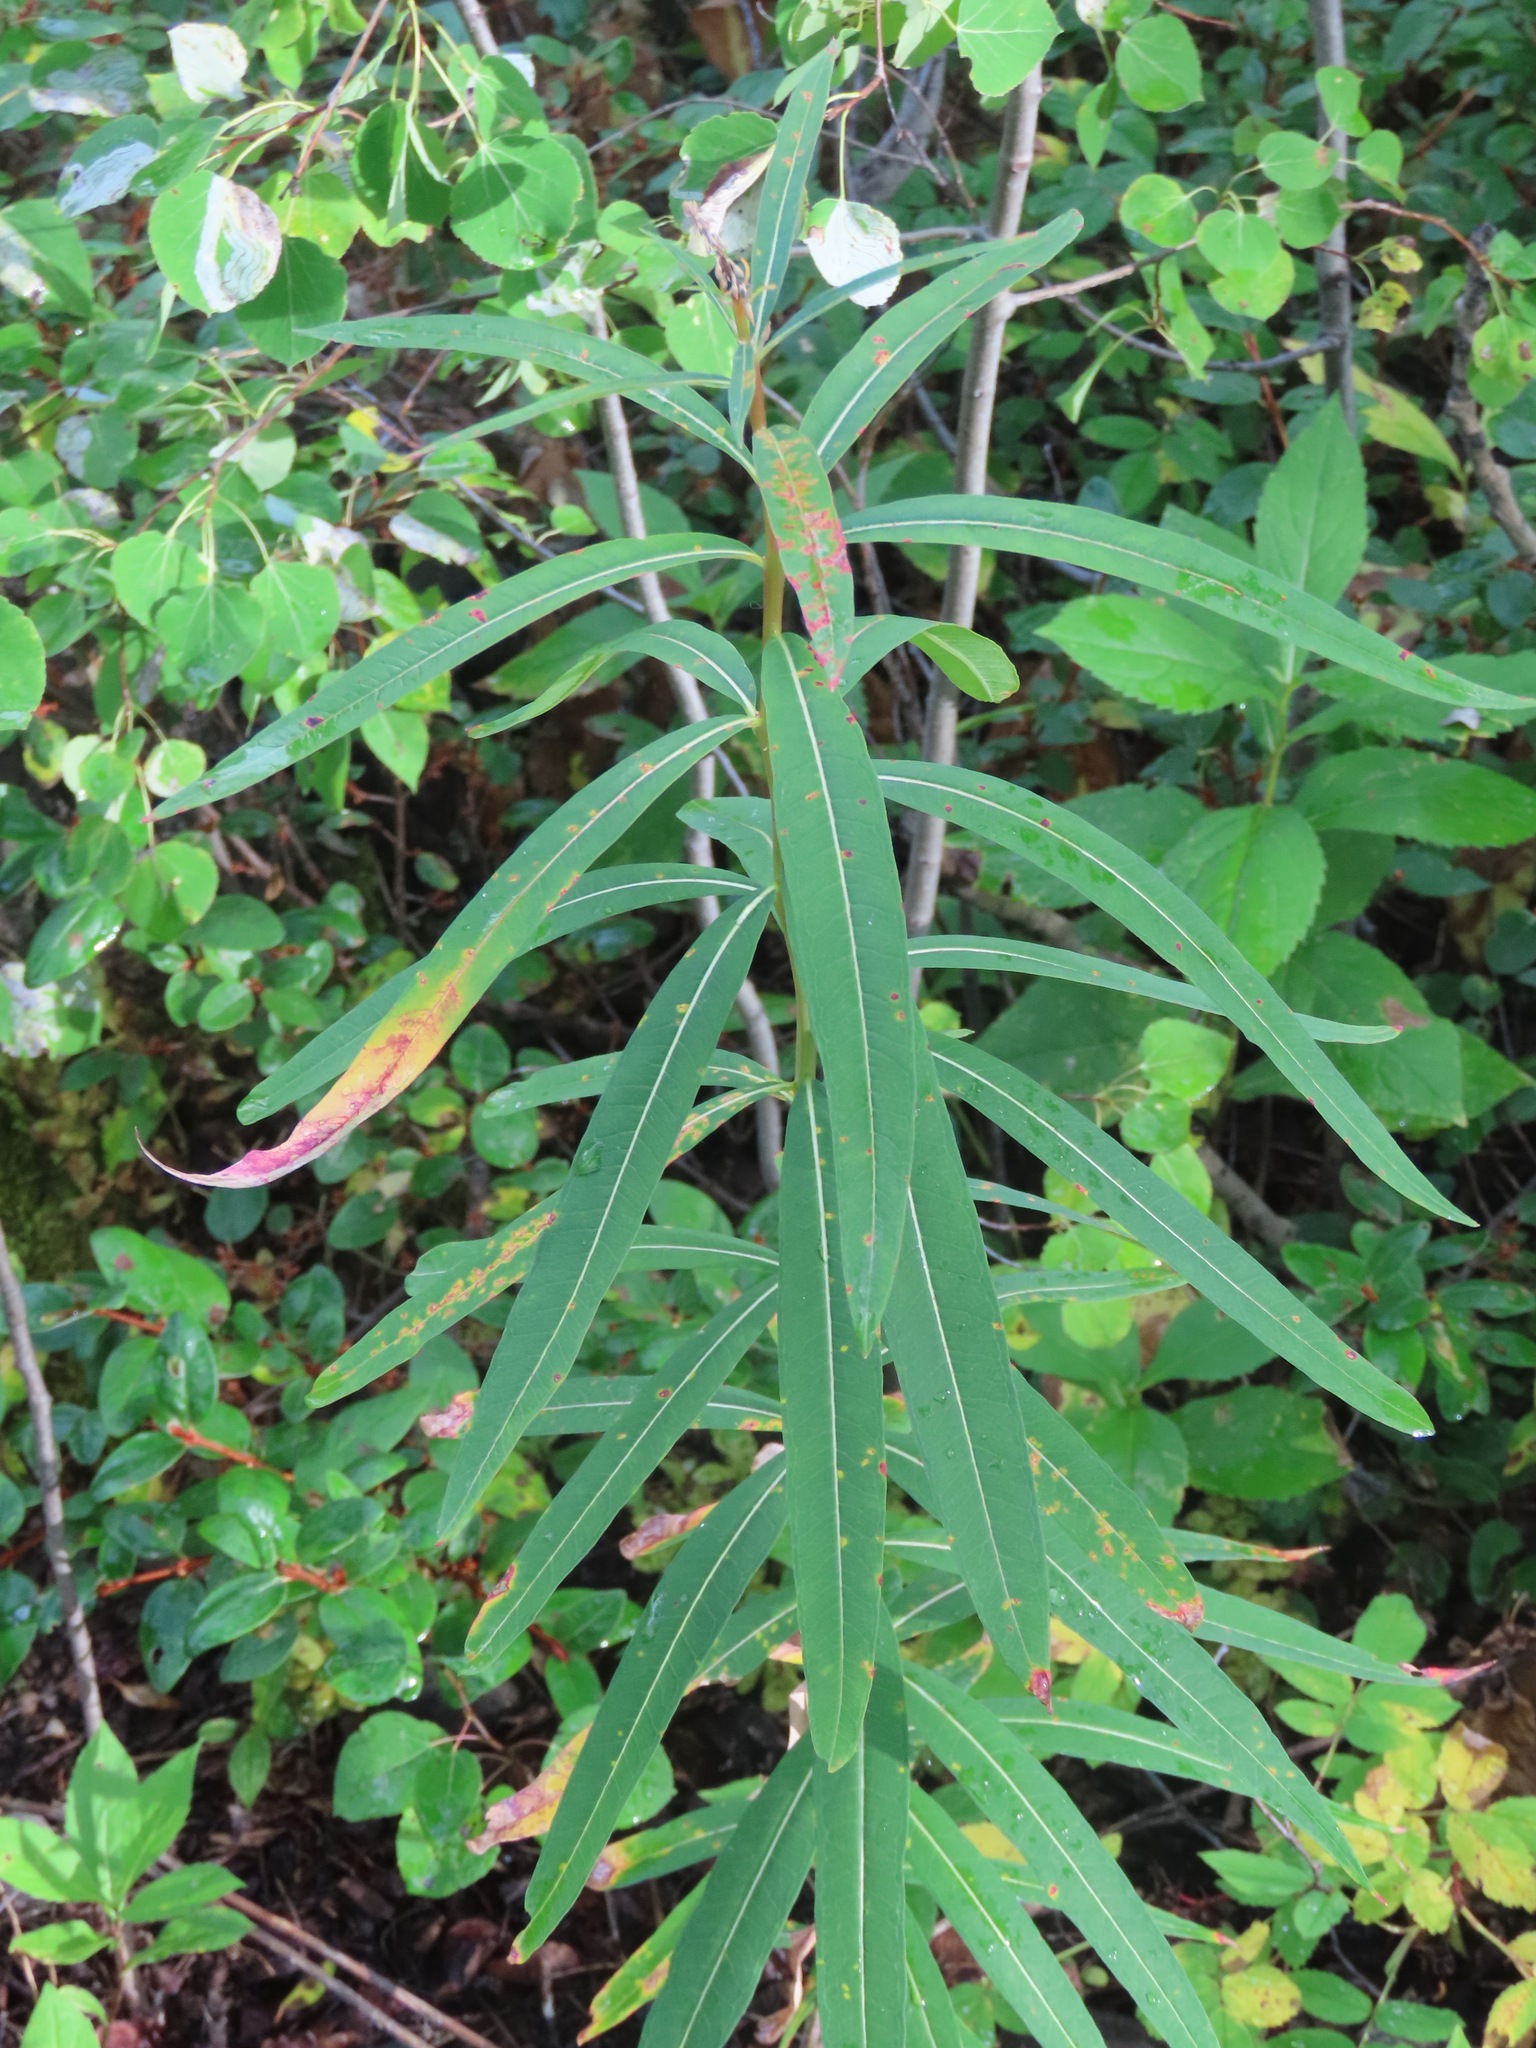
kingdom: Plantae
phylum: Tracheophyta
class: Magnoliopsida
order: Myrtales
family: Onagraceae
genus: Chamaenerion
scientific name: Chamaenerion angustifolium
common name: Fireweed
